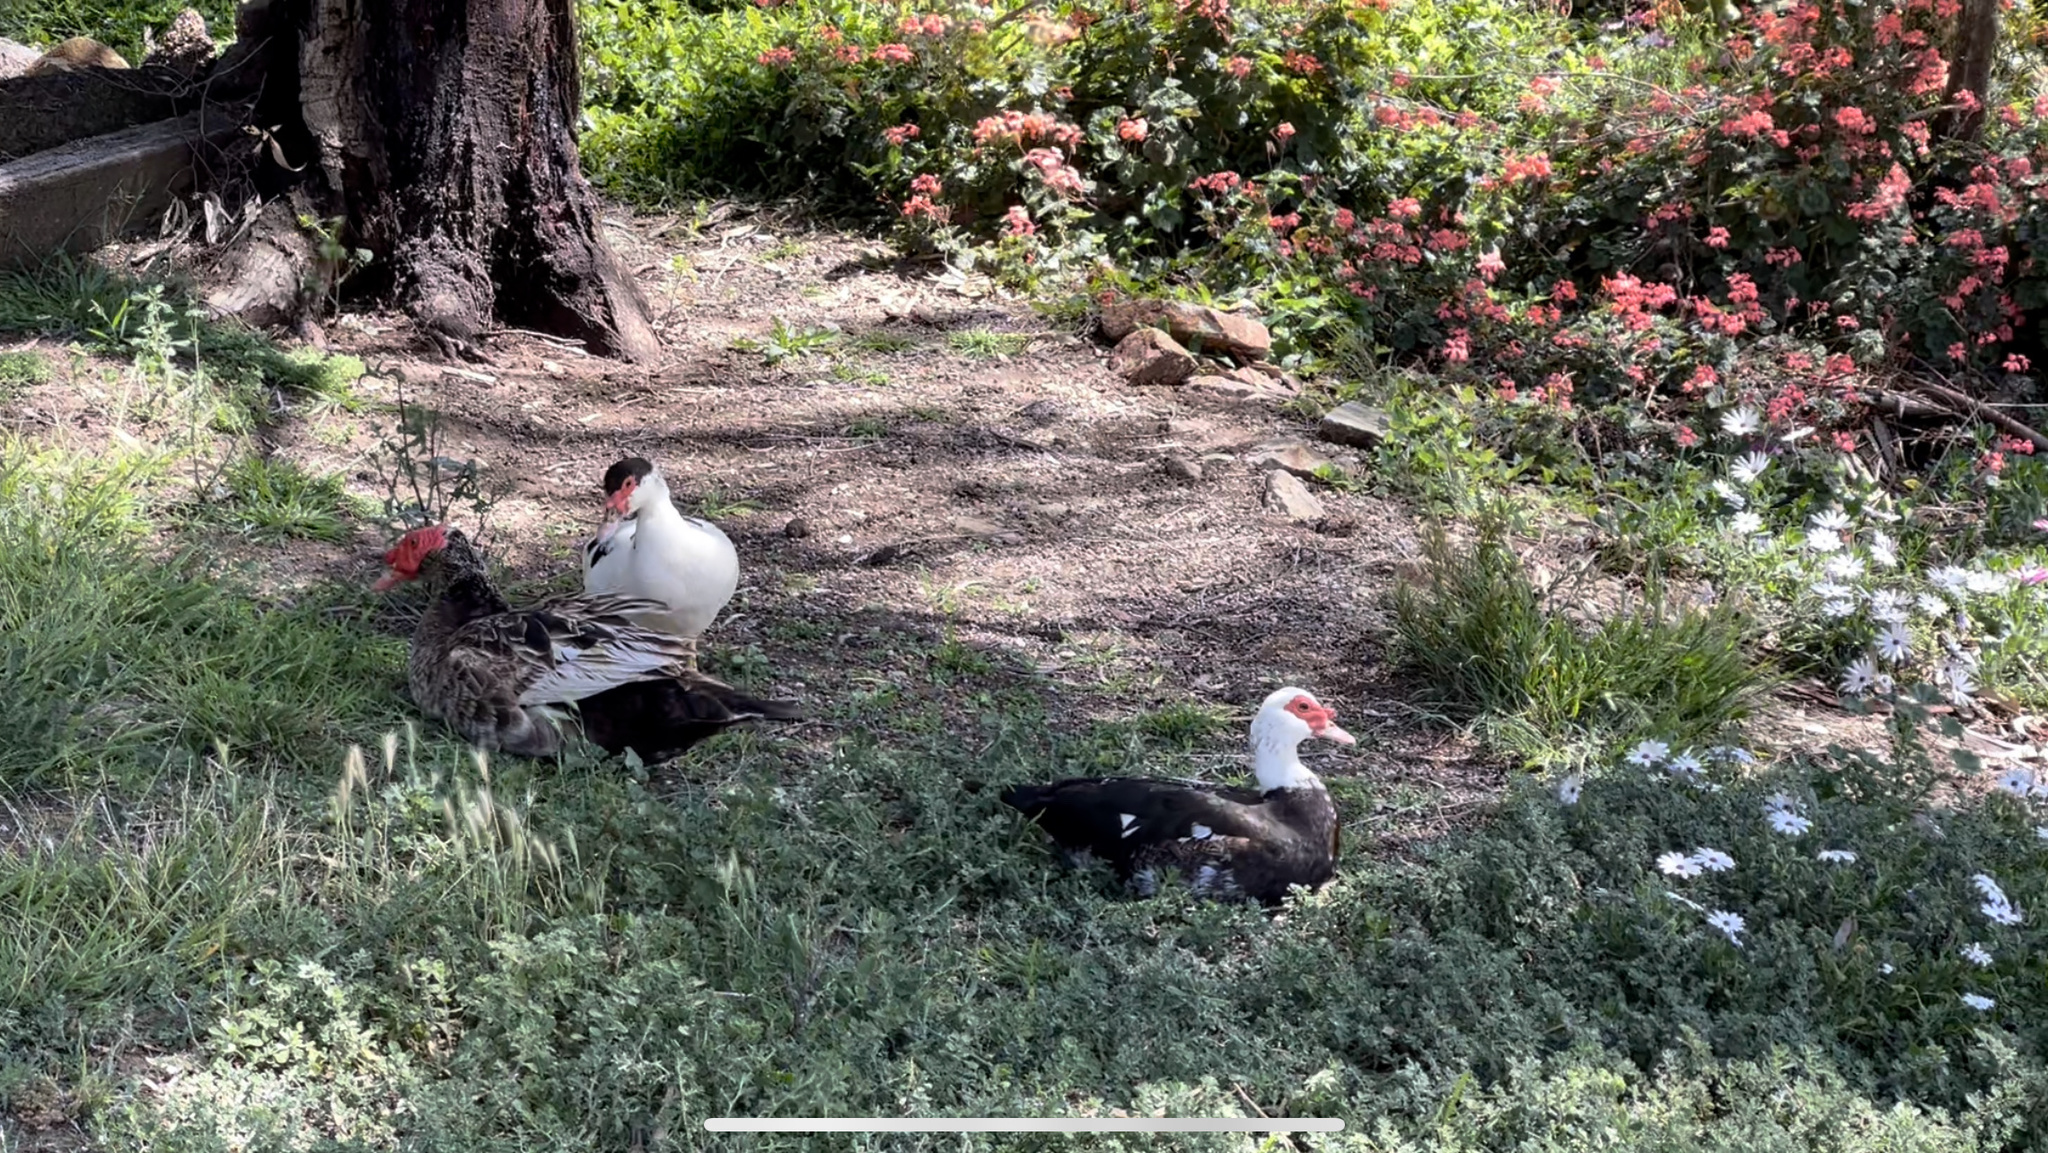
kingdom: Animalia
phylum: Chordata
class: Aves
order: Anseriformes
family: Anatidae
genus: Cairina
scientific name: Cairina moschata
